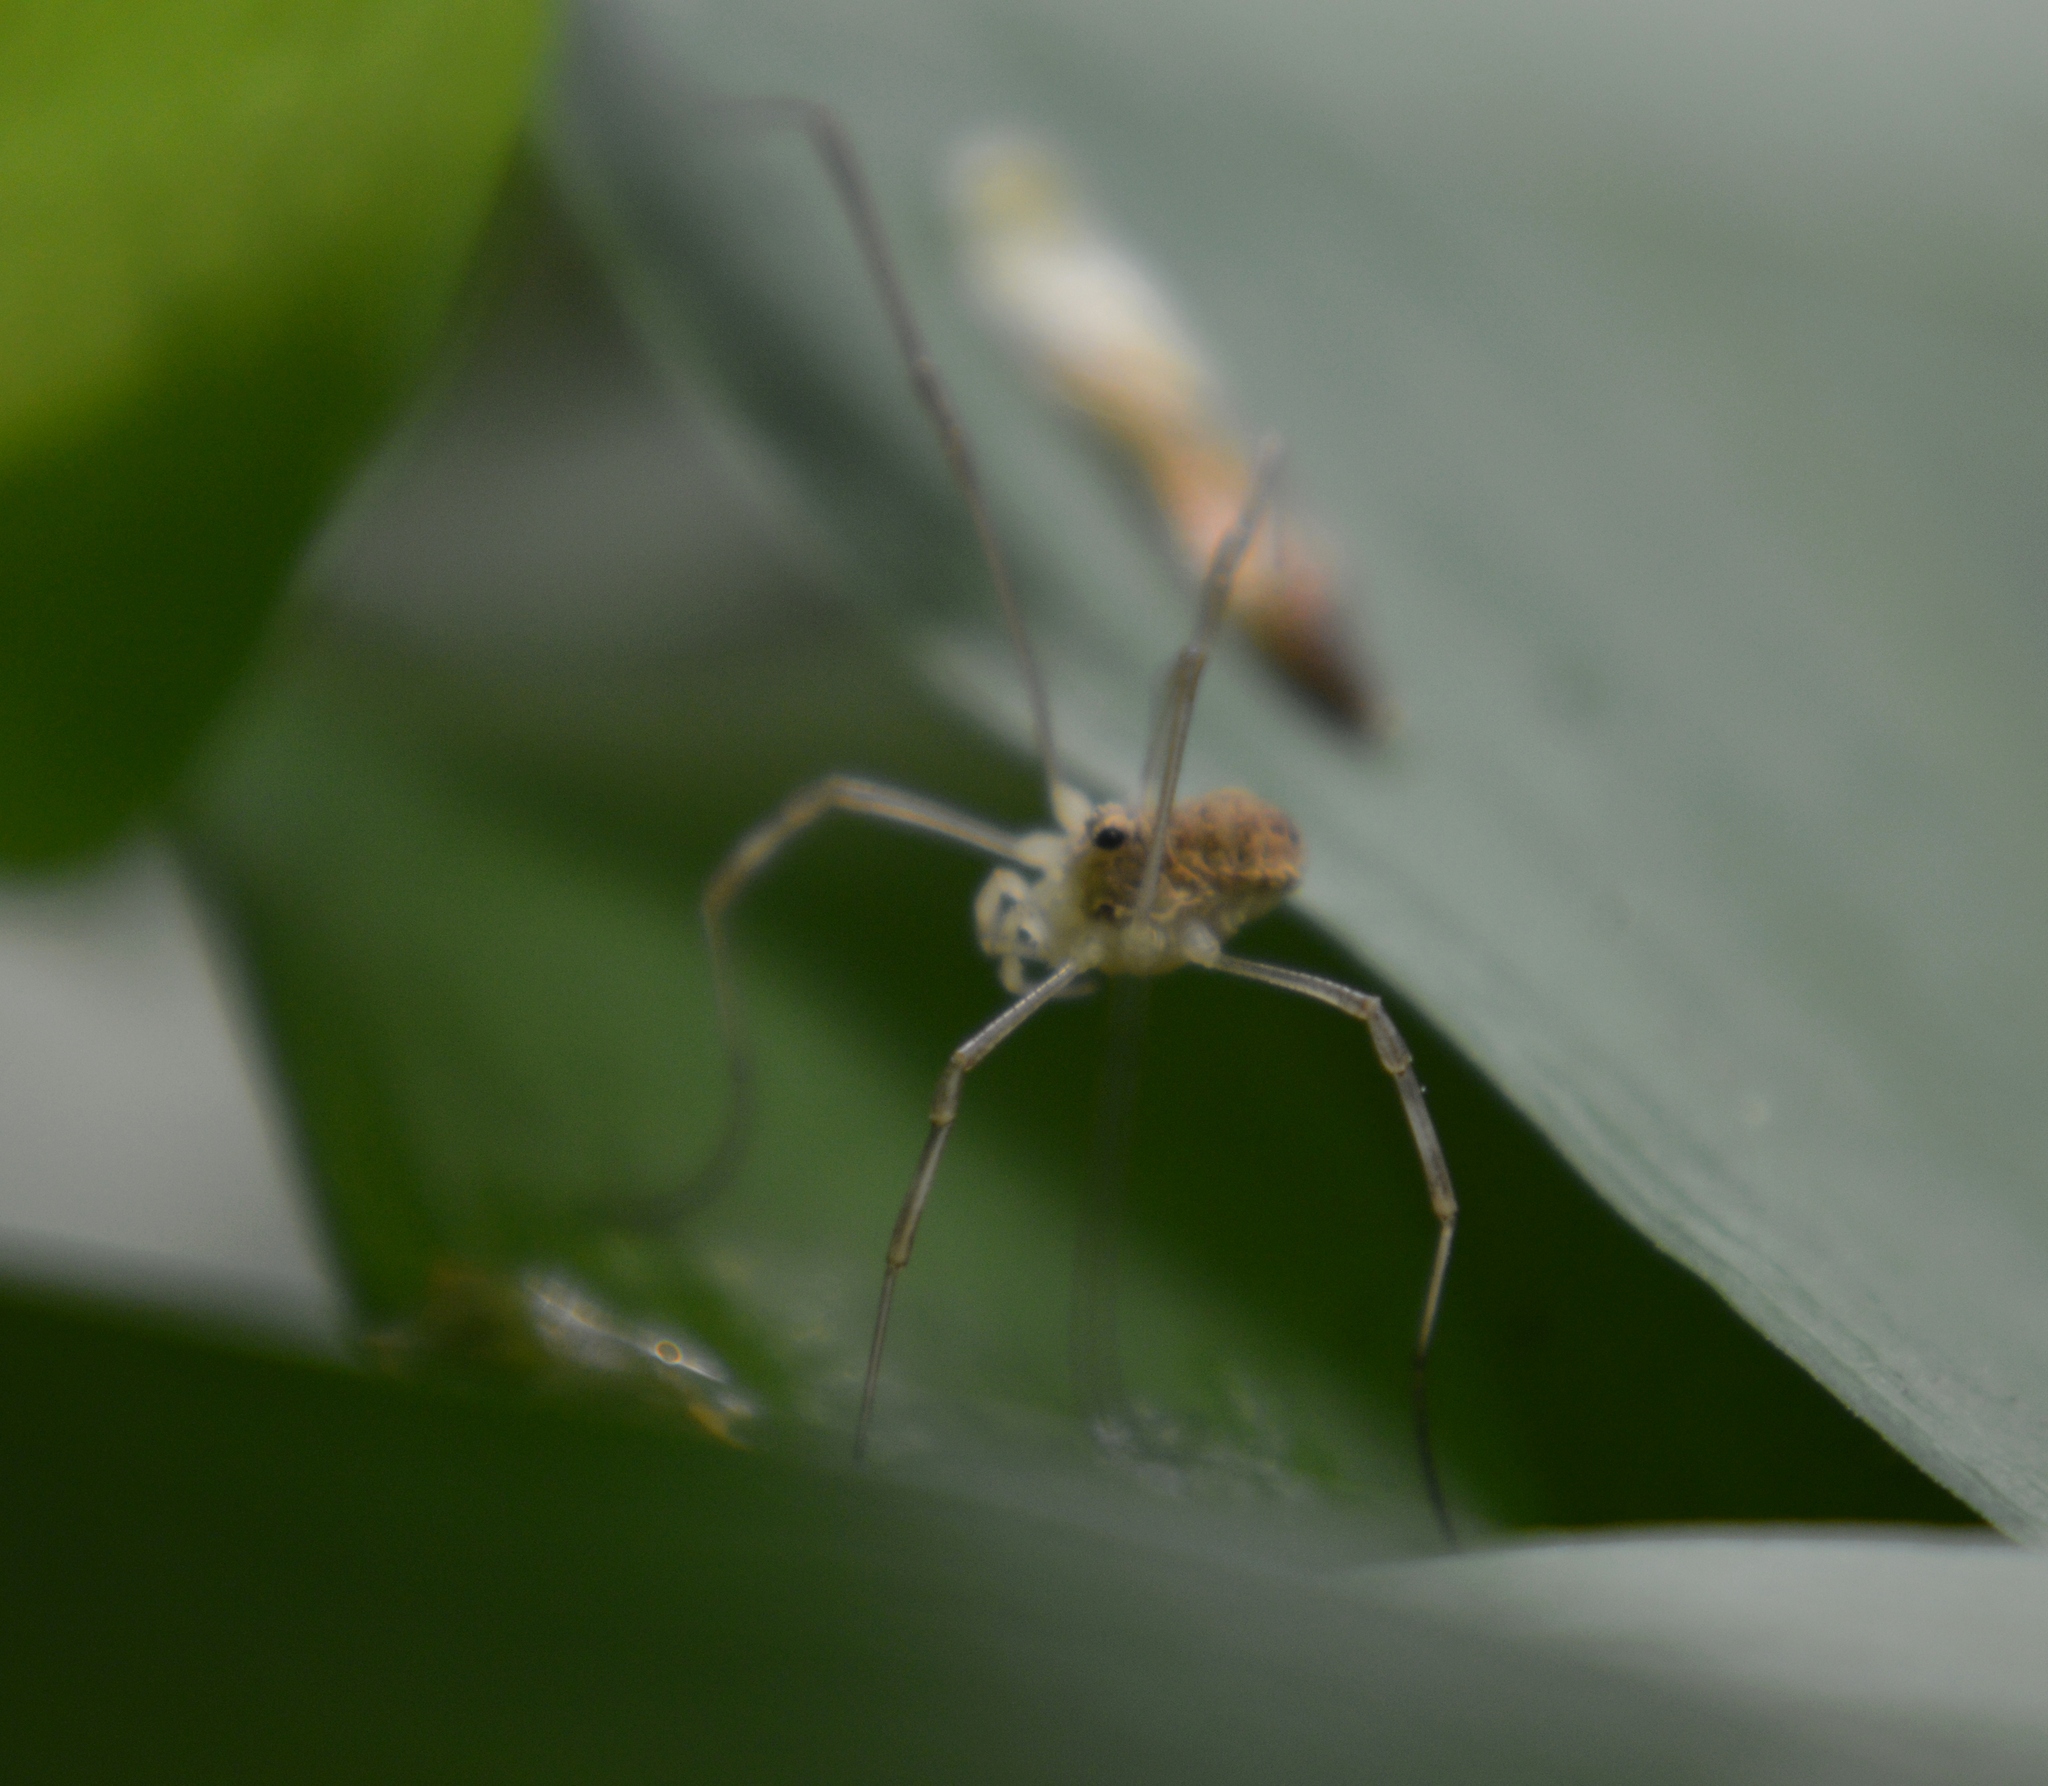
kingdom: Animalia
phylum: Arthropoda
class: Arachnida
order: Opiliones
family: Phalangiidae
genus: Rilaena
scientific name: Rilaena triangularis
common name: Spring harvestman
